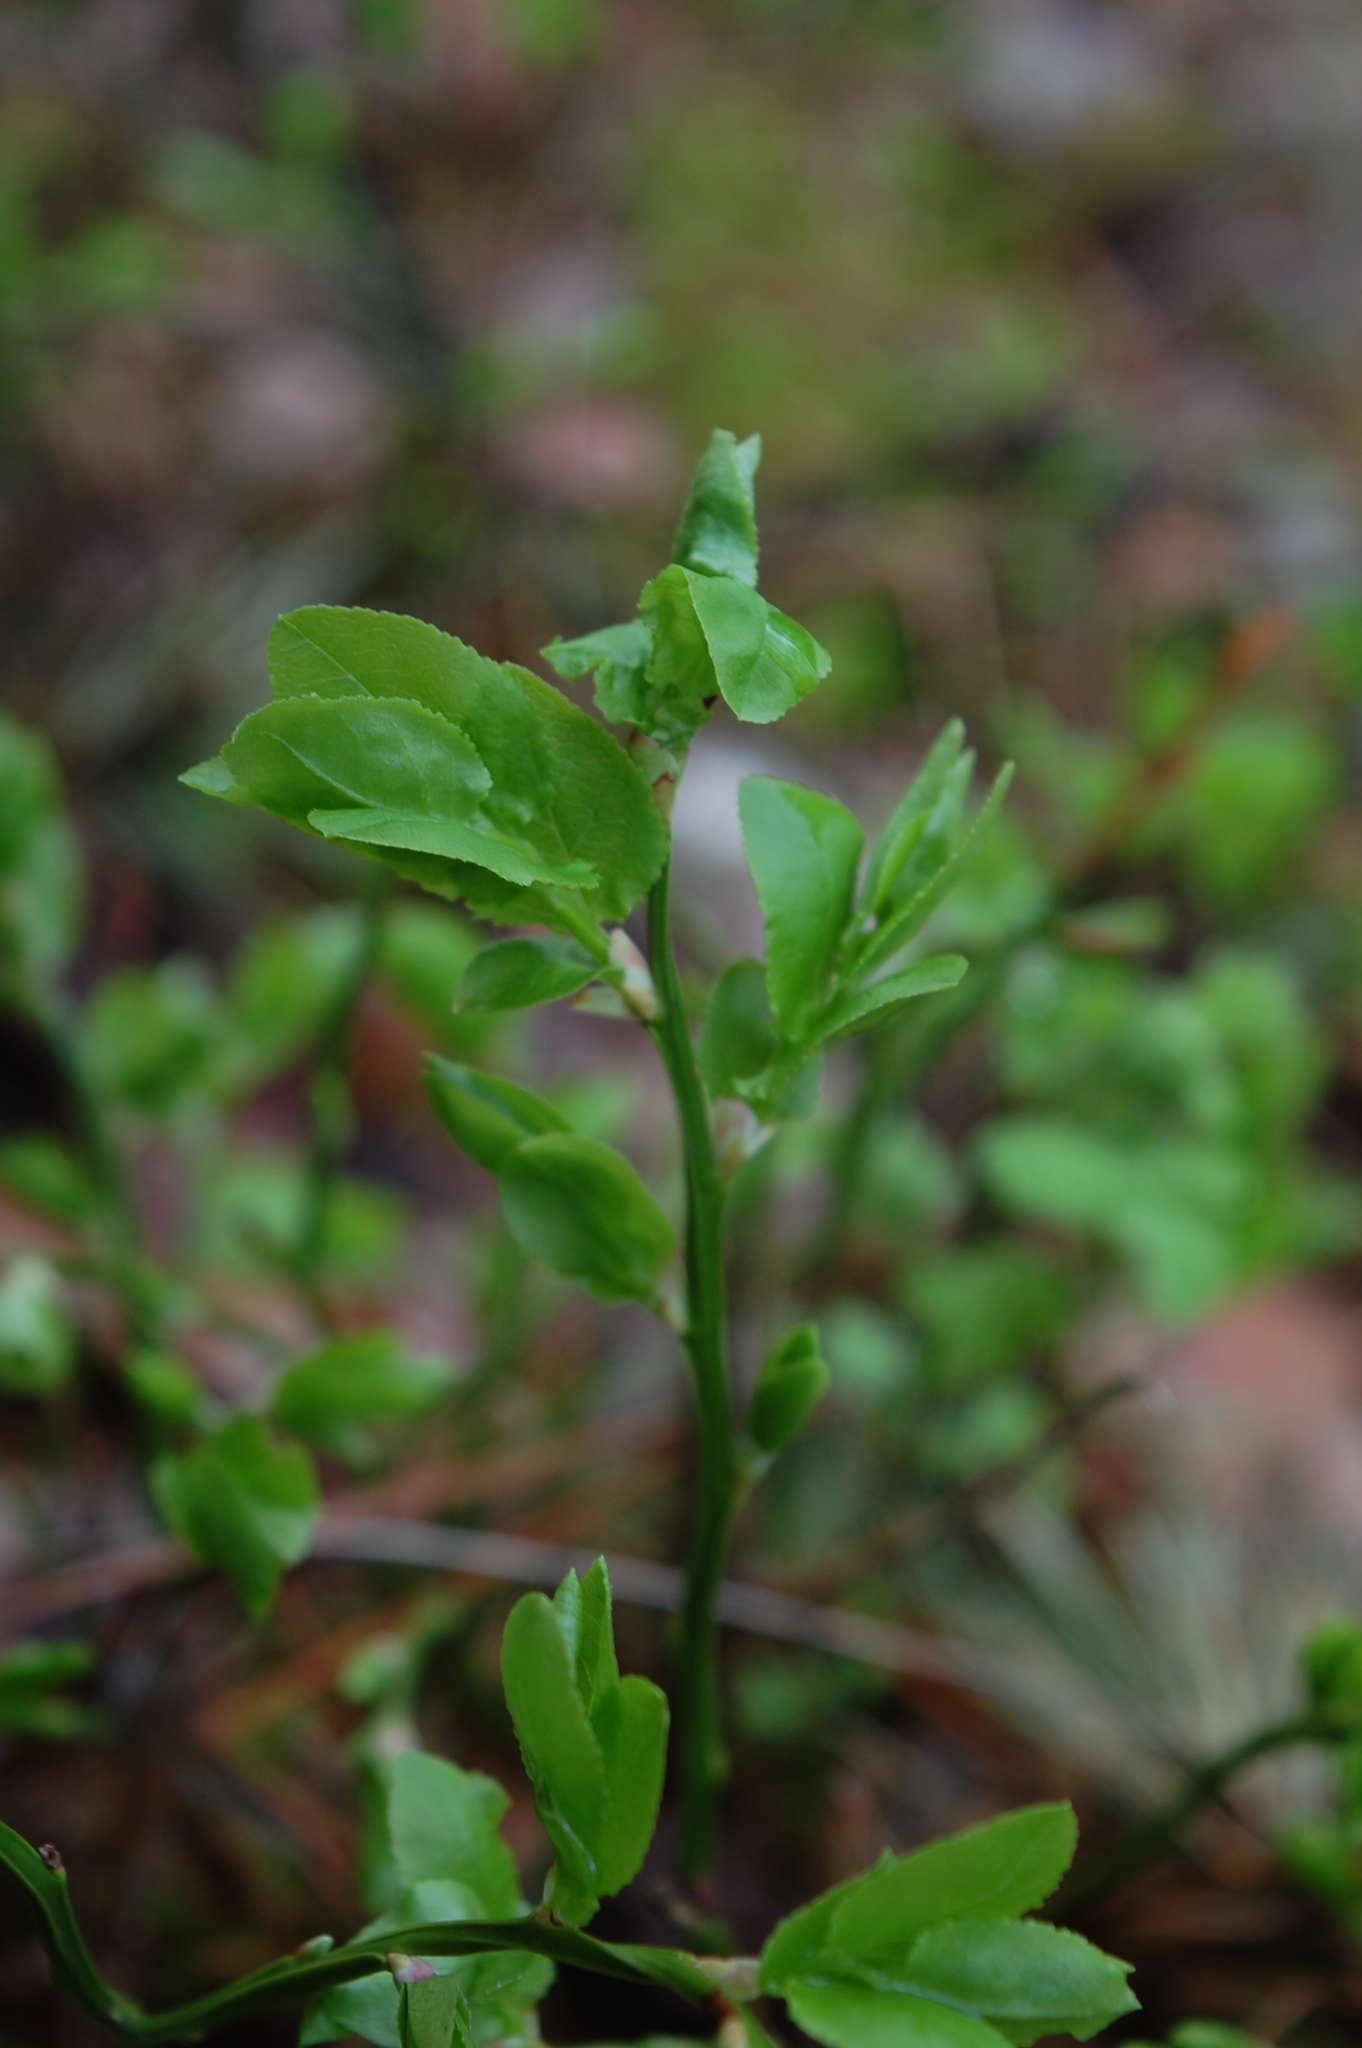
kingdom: Plantae
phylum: Tracheophyta
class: Magnoliopsida
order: Ericales
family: Ericaceae
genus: Vaccinium
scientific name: Vaccinium myrtillus
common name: Bilberry
